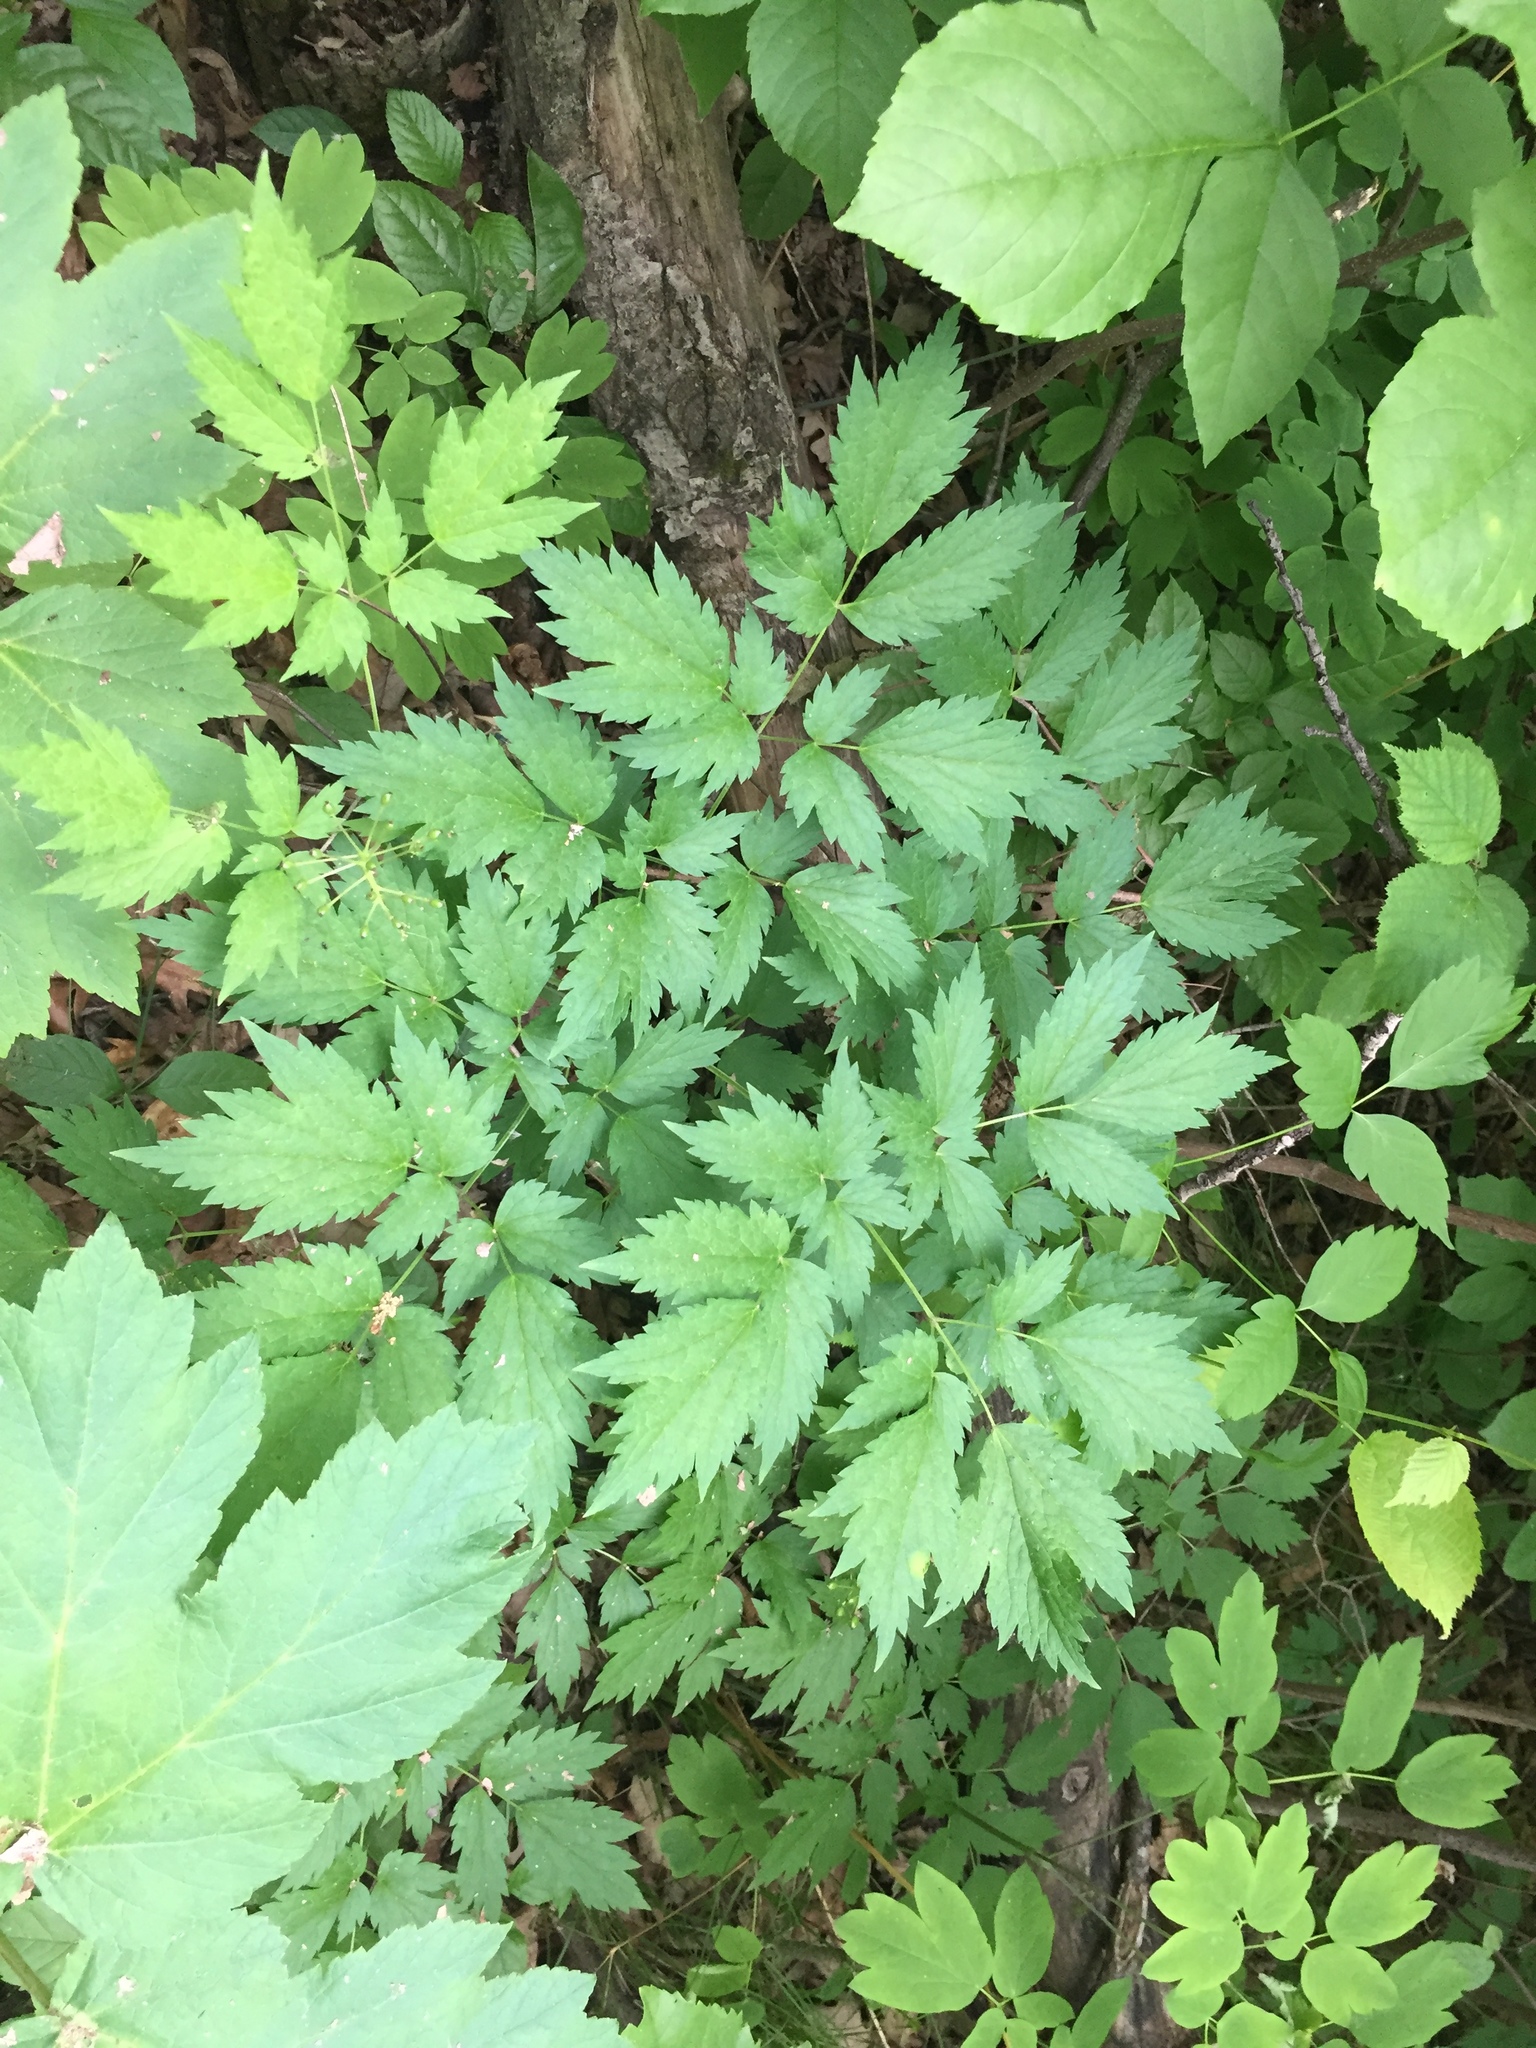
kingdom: Plantae
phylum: Tracheophyta
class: Magnoliopsida
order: Ranunculales
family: Ranunculaceae
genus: Actaea
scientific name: Actaea rubra
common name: Red baneberry
